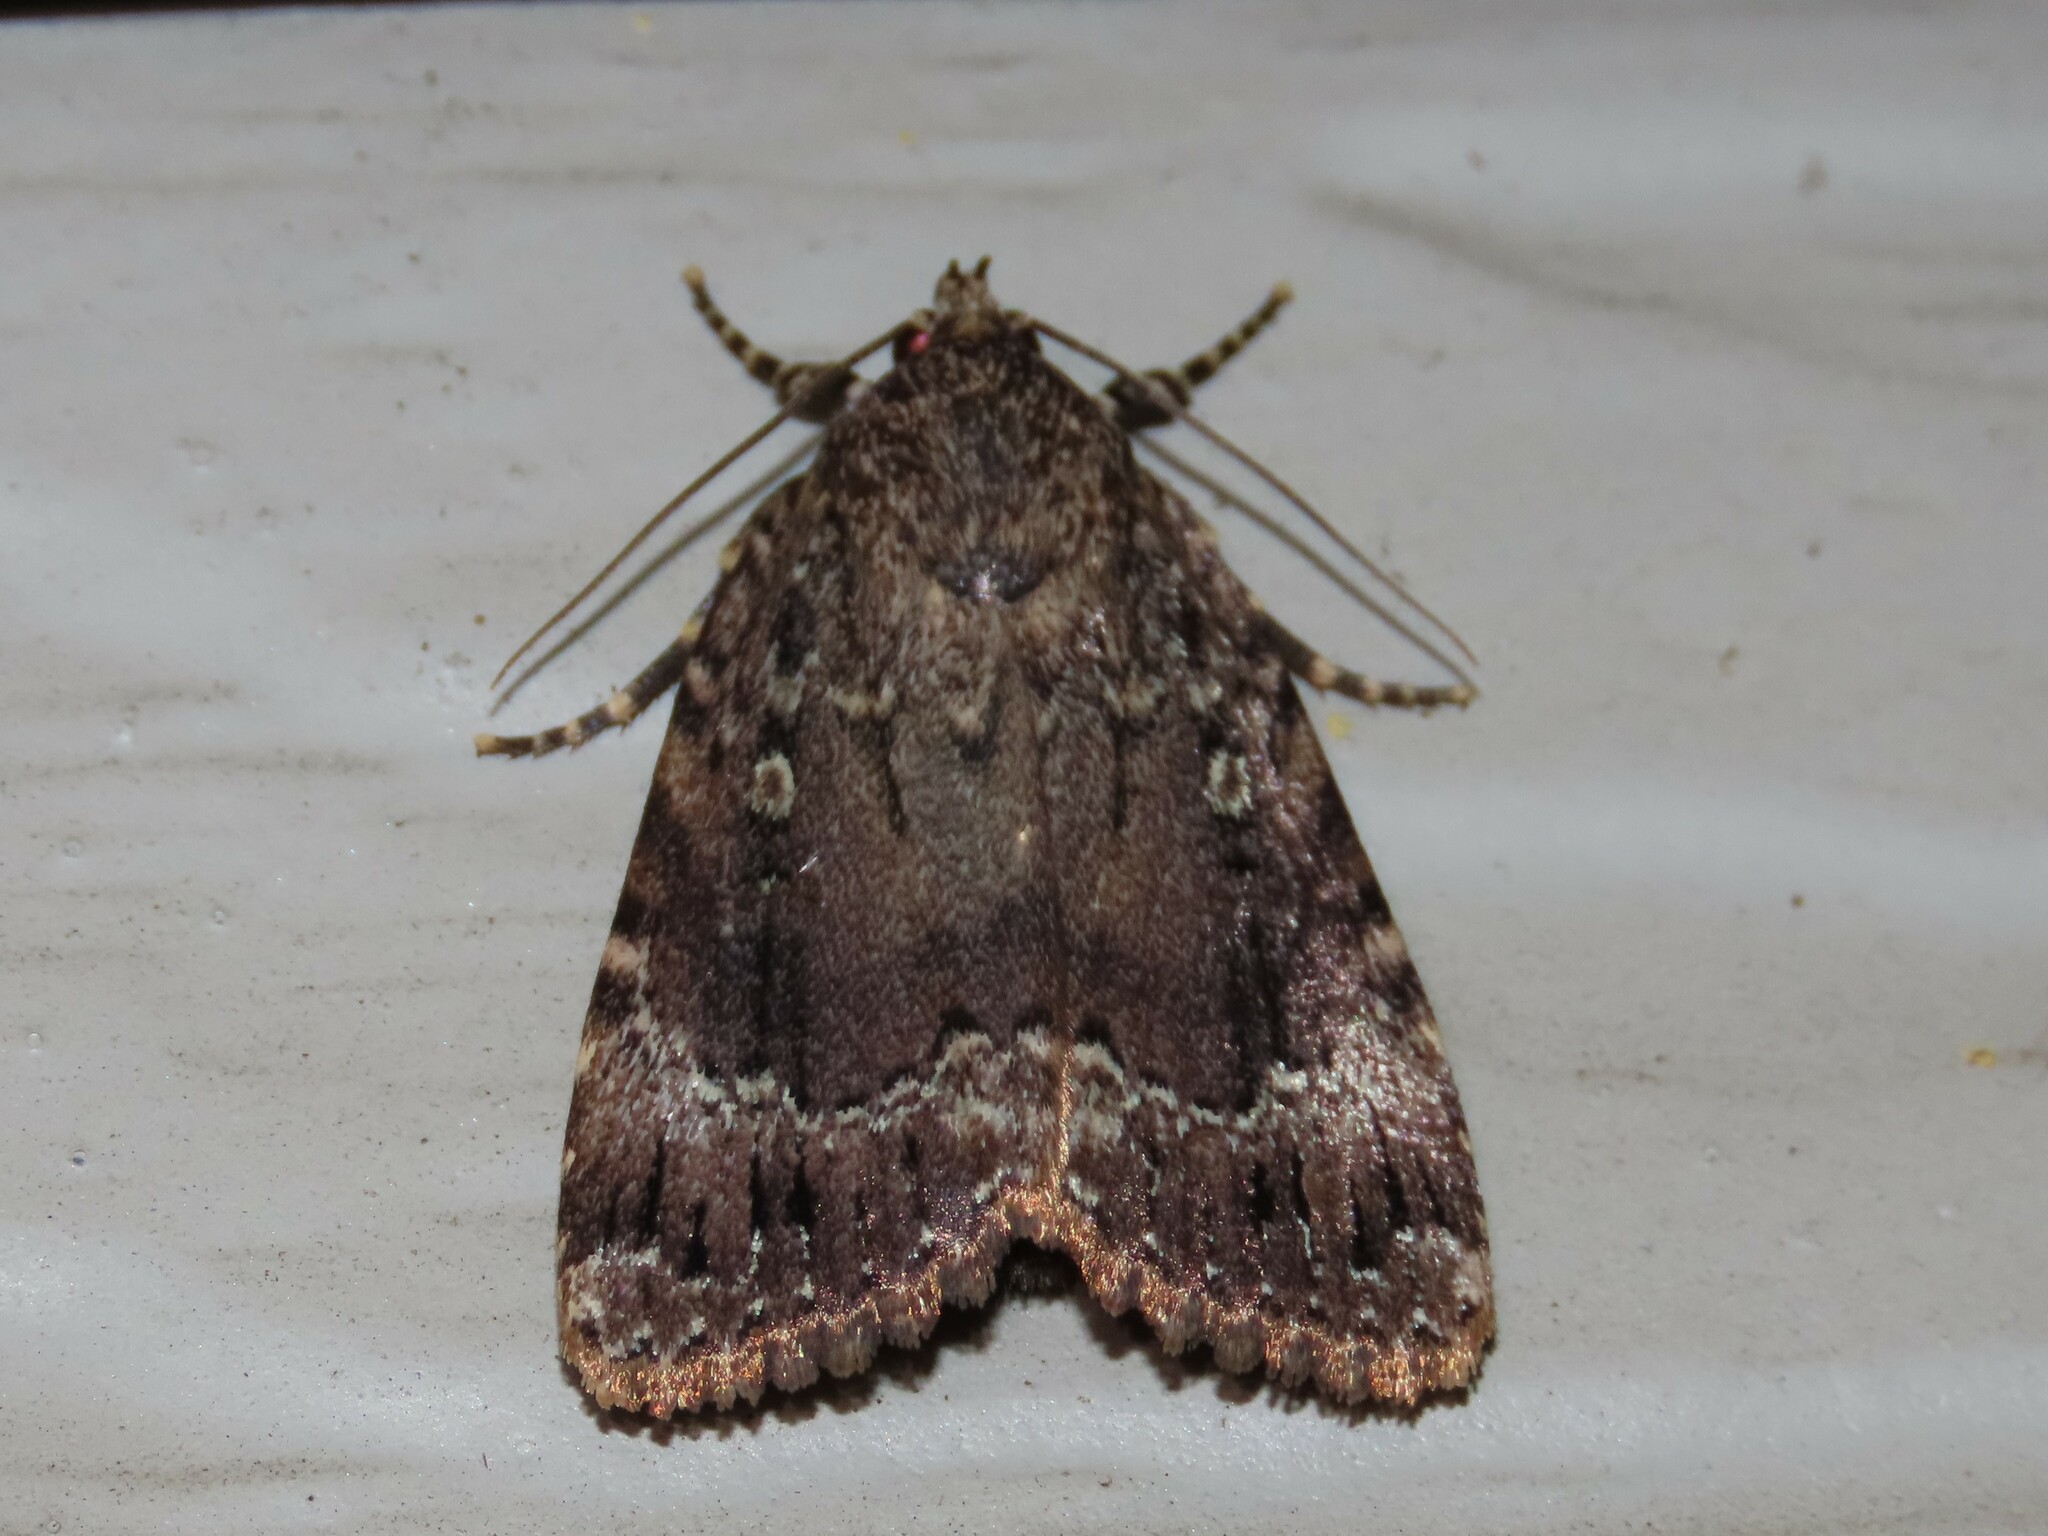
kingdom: Animalia
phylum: Arthropoda
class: Insecta
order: Lepidoptera
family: Noctuidae
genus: Amphipyra
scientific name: Amphipyra pyramidoides
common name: American copper underwing
